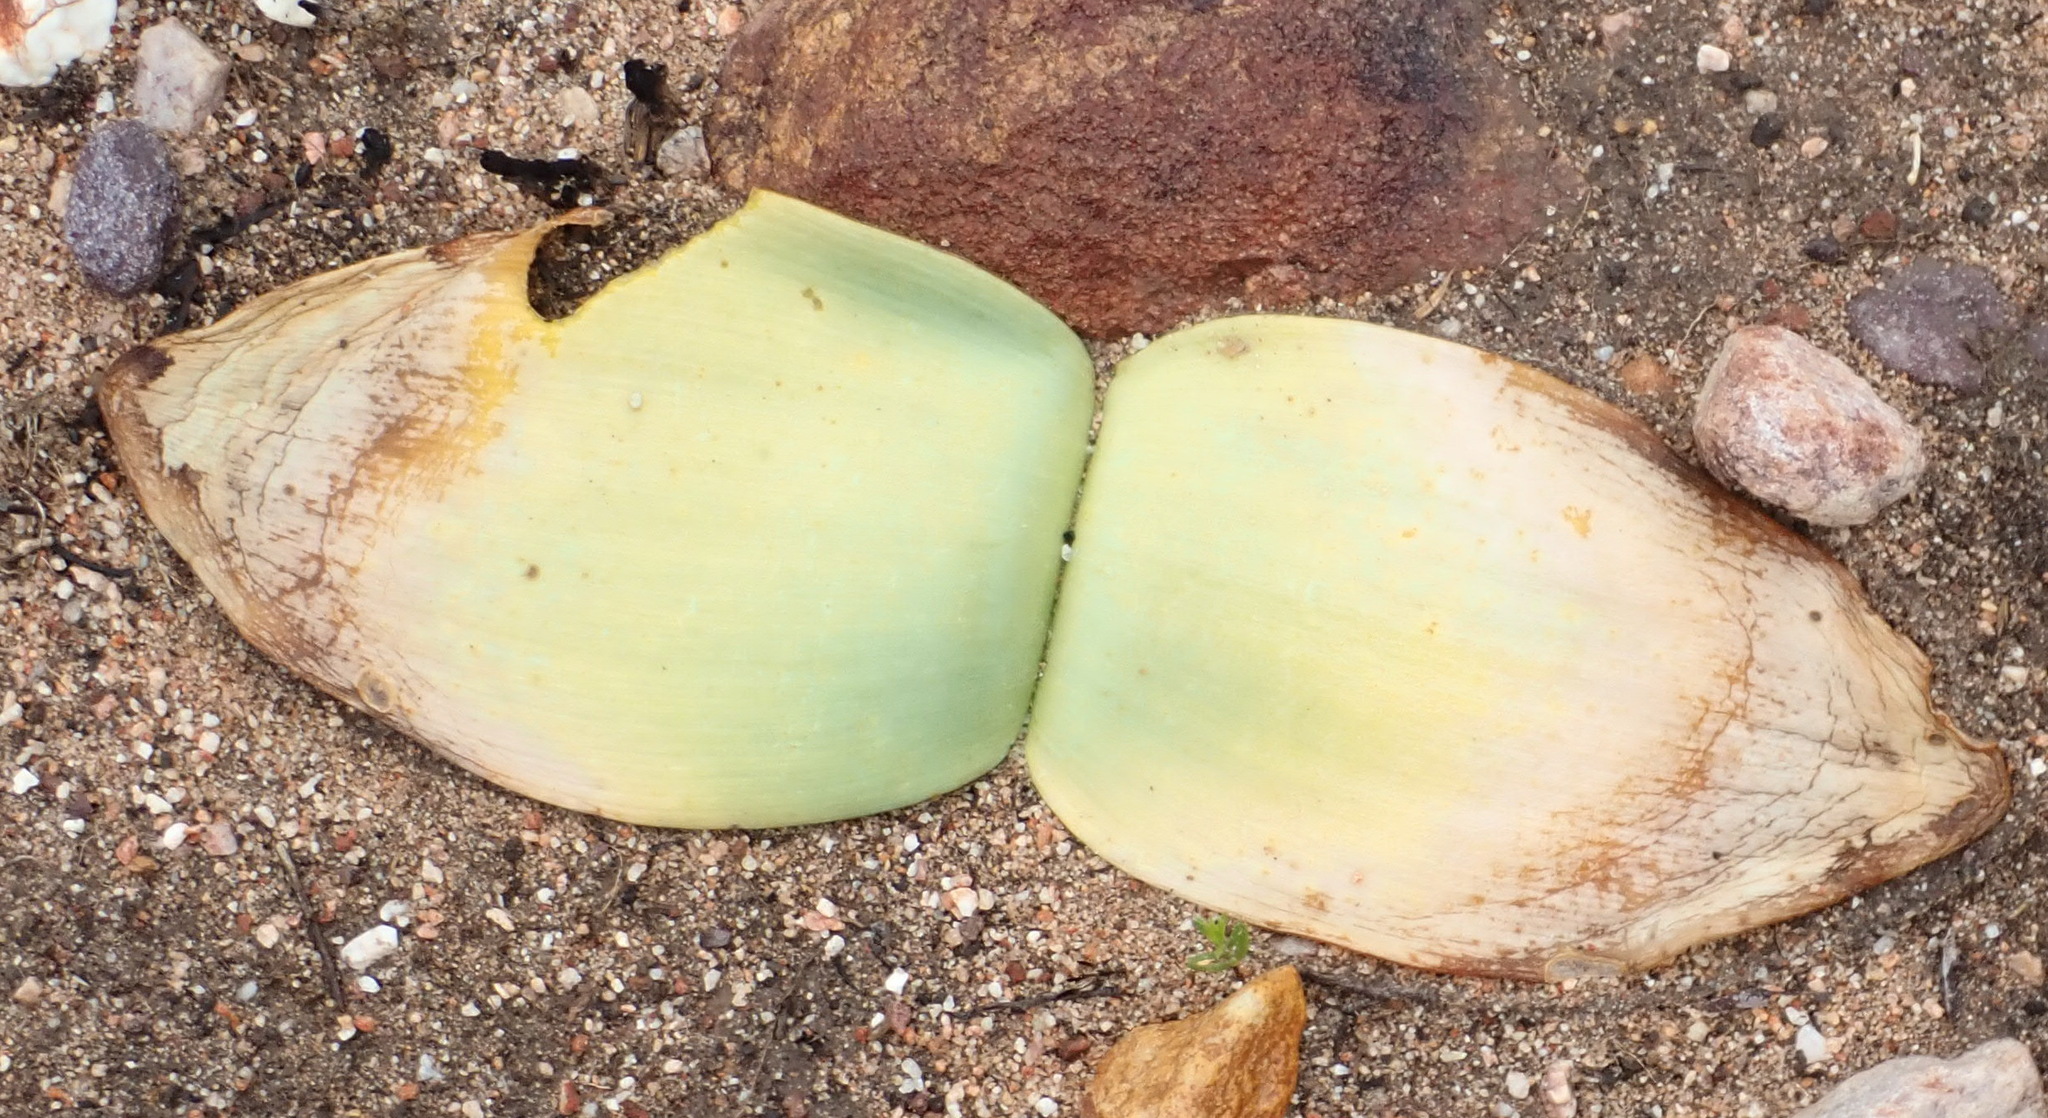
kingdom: Plantae
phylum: Tracheophyta
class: Liliopsida
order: Asparagales
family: Amaryllidaceae
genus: Haemanthus
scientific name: Haemanthus sanguineus
